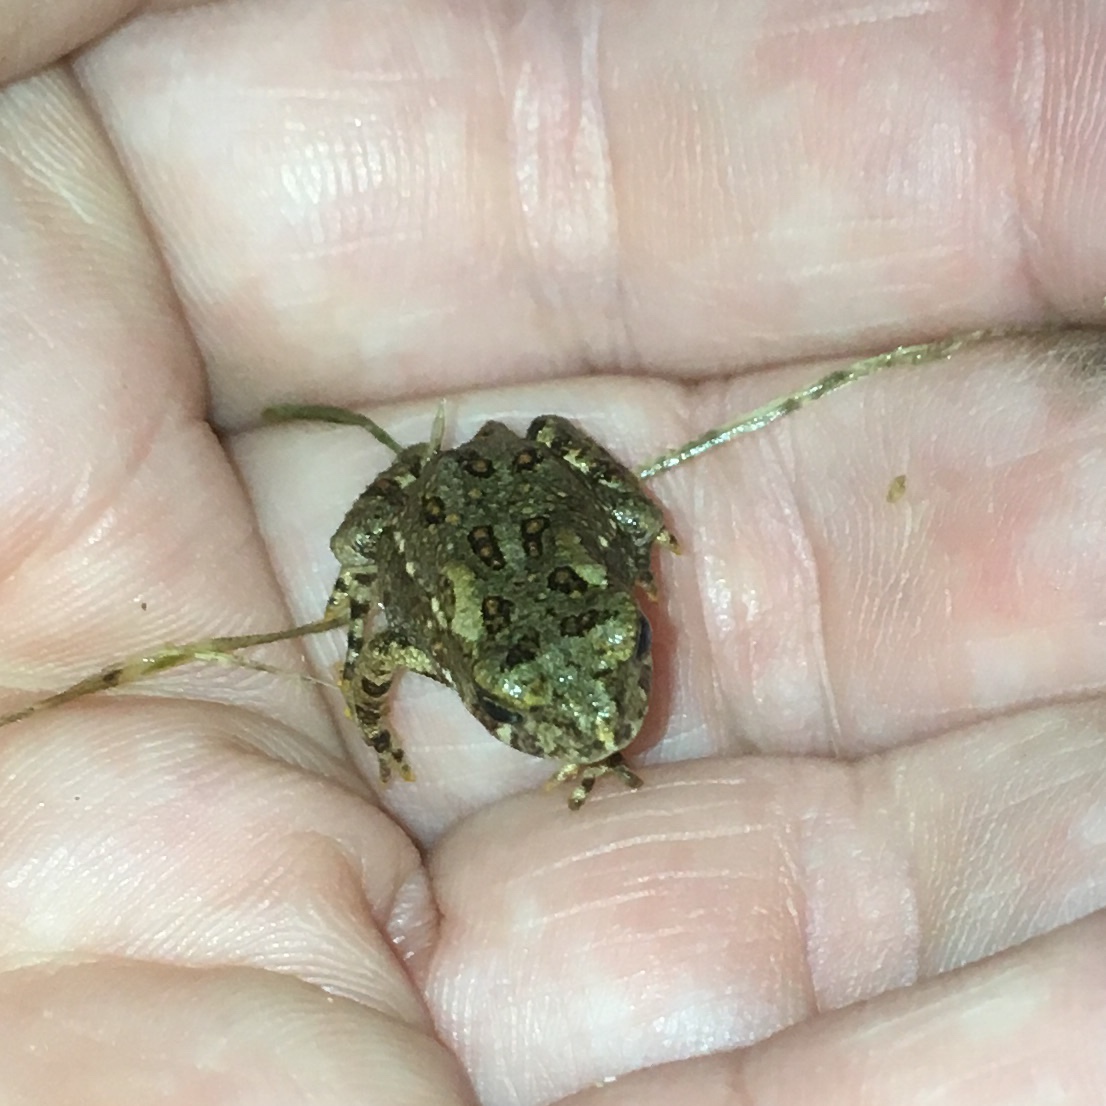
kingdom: Animalia
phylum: Chordata
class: Amphibia
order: Anura
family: Bufonidae
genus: Anaxyrus
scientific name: Anaxyrus americanus
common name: American toad
